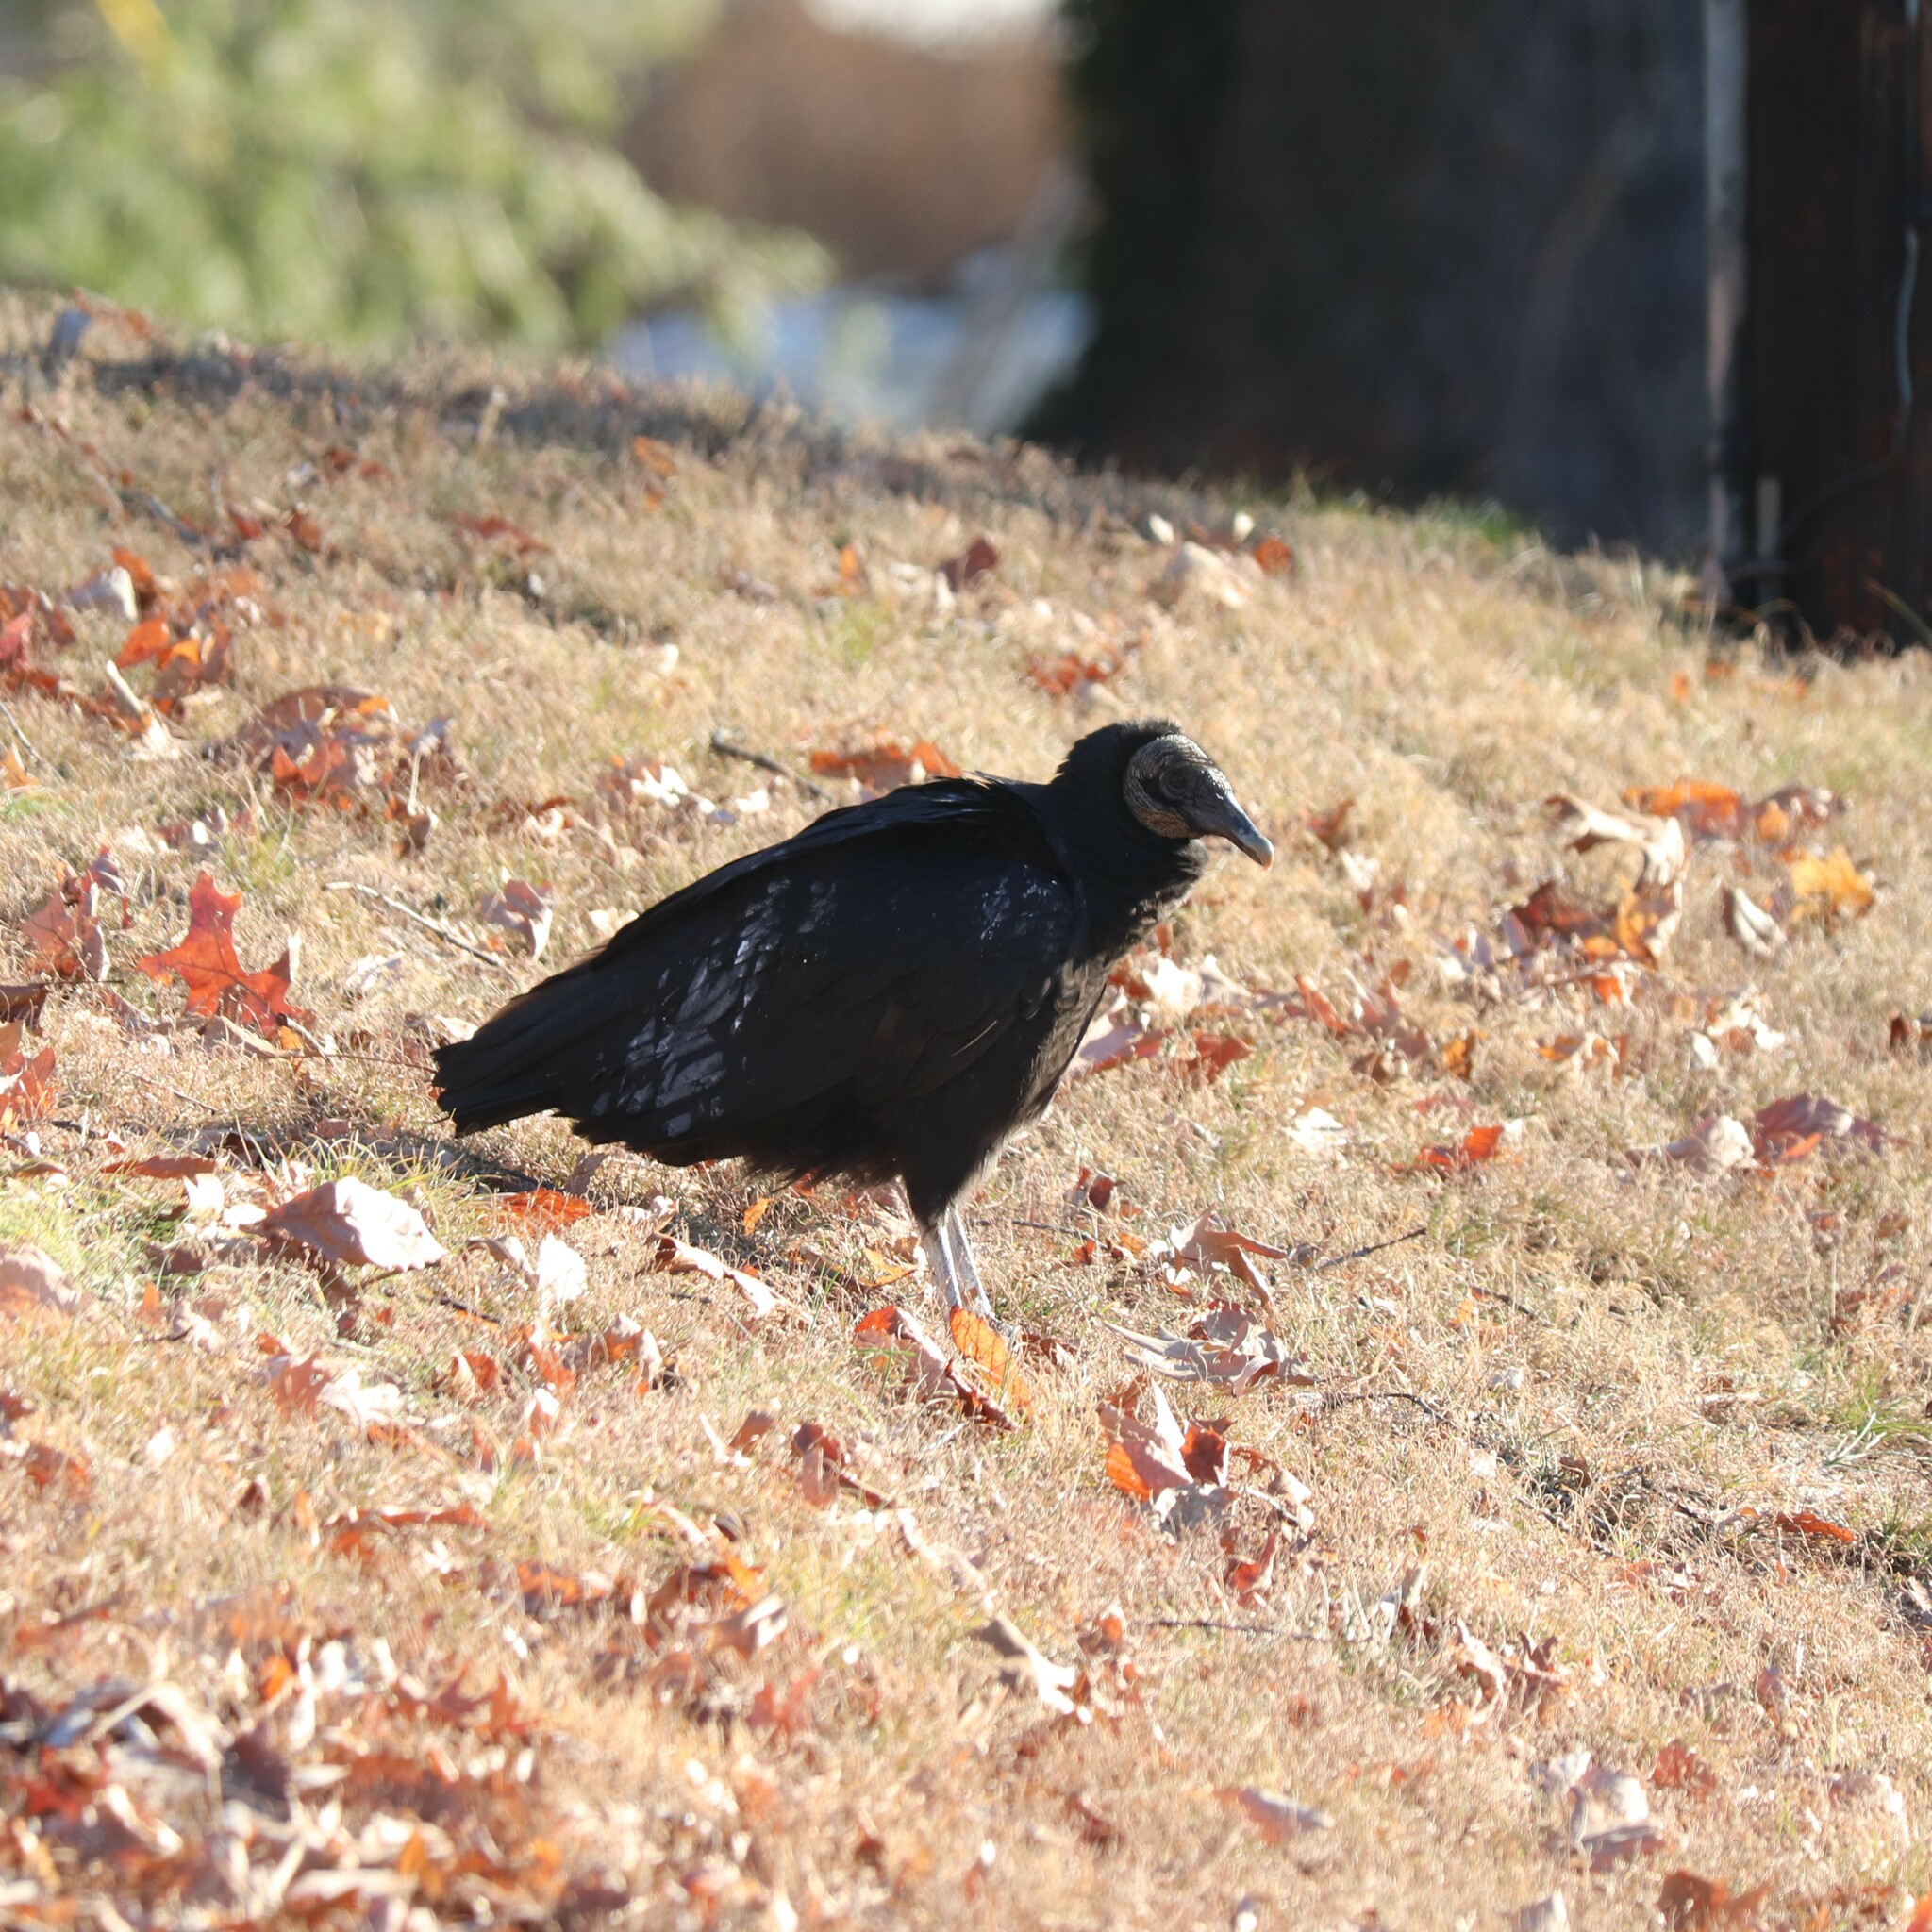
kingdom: Animalia
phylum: Chordata
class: Aves
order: Accipitriformes
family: Cathartidae
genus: Coragyps
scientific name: Coragyps atratus
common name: Black vulture
